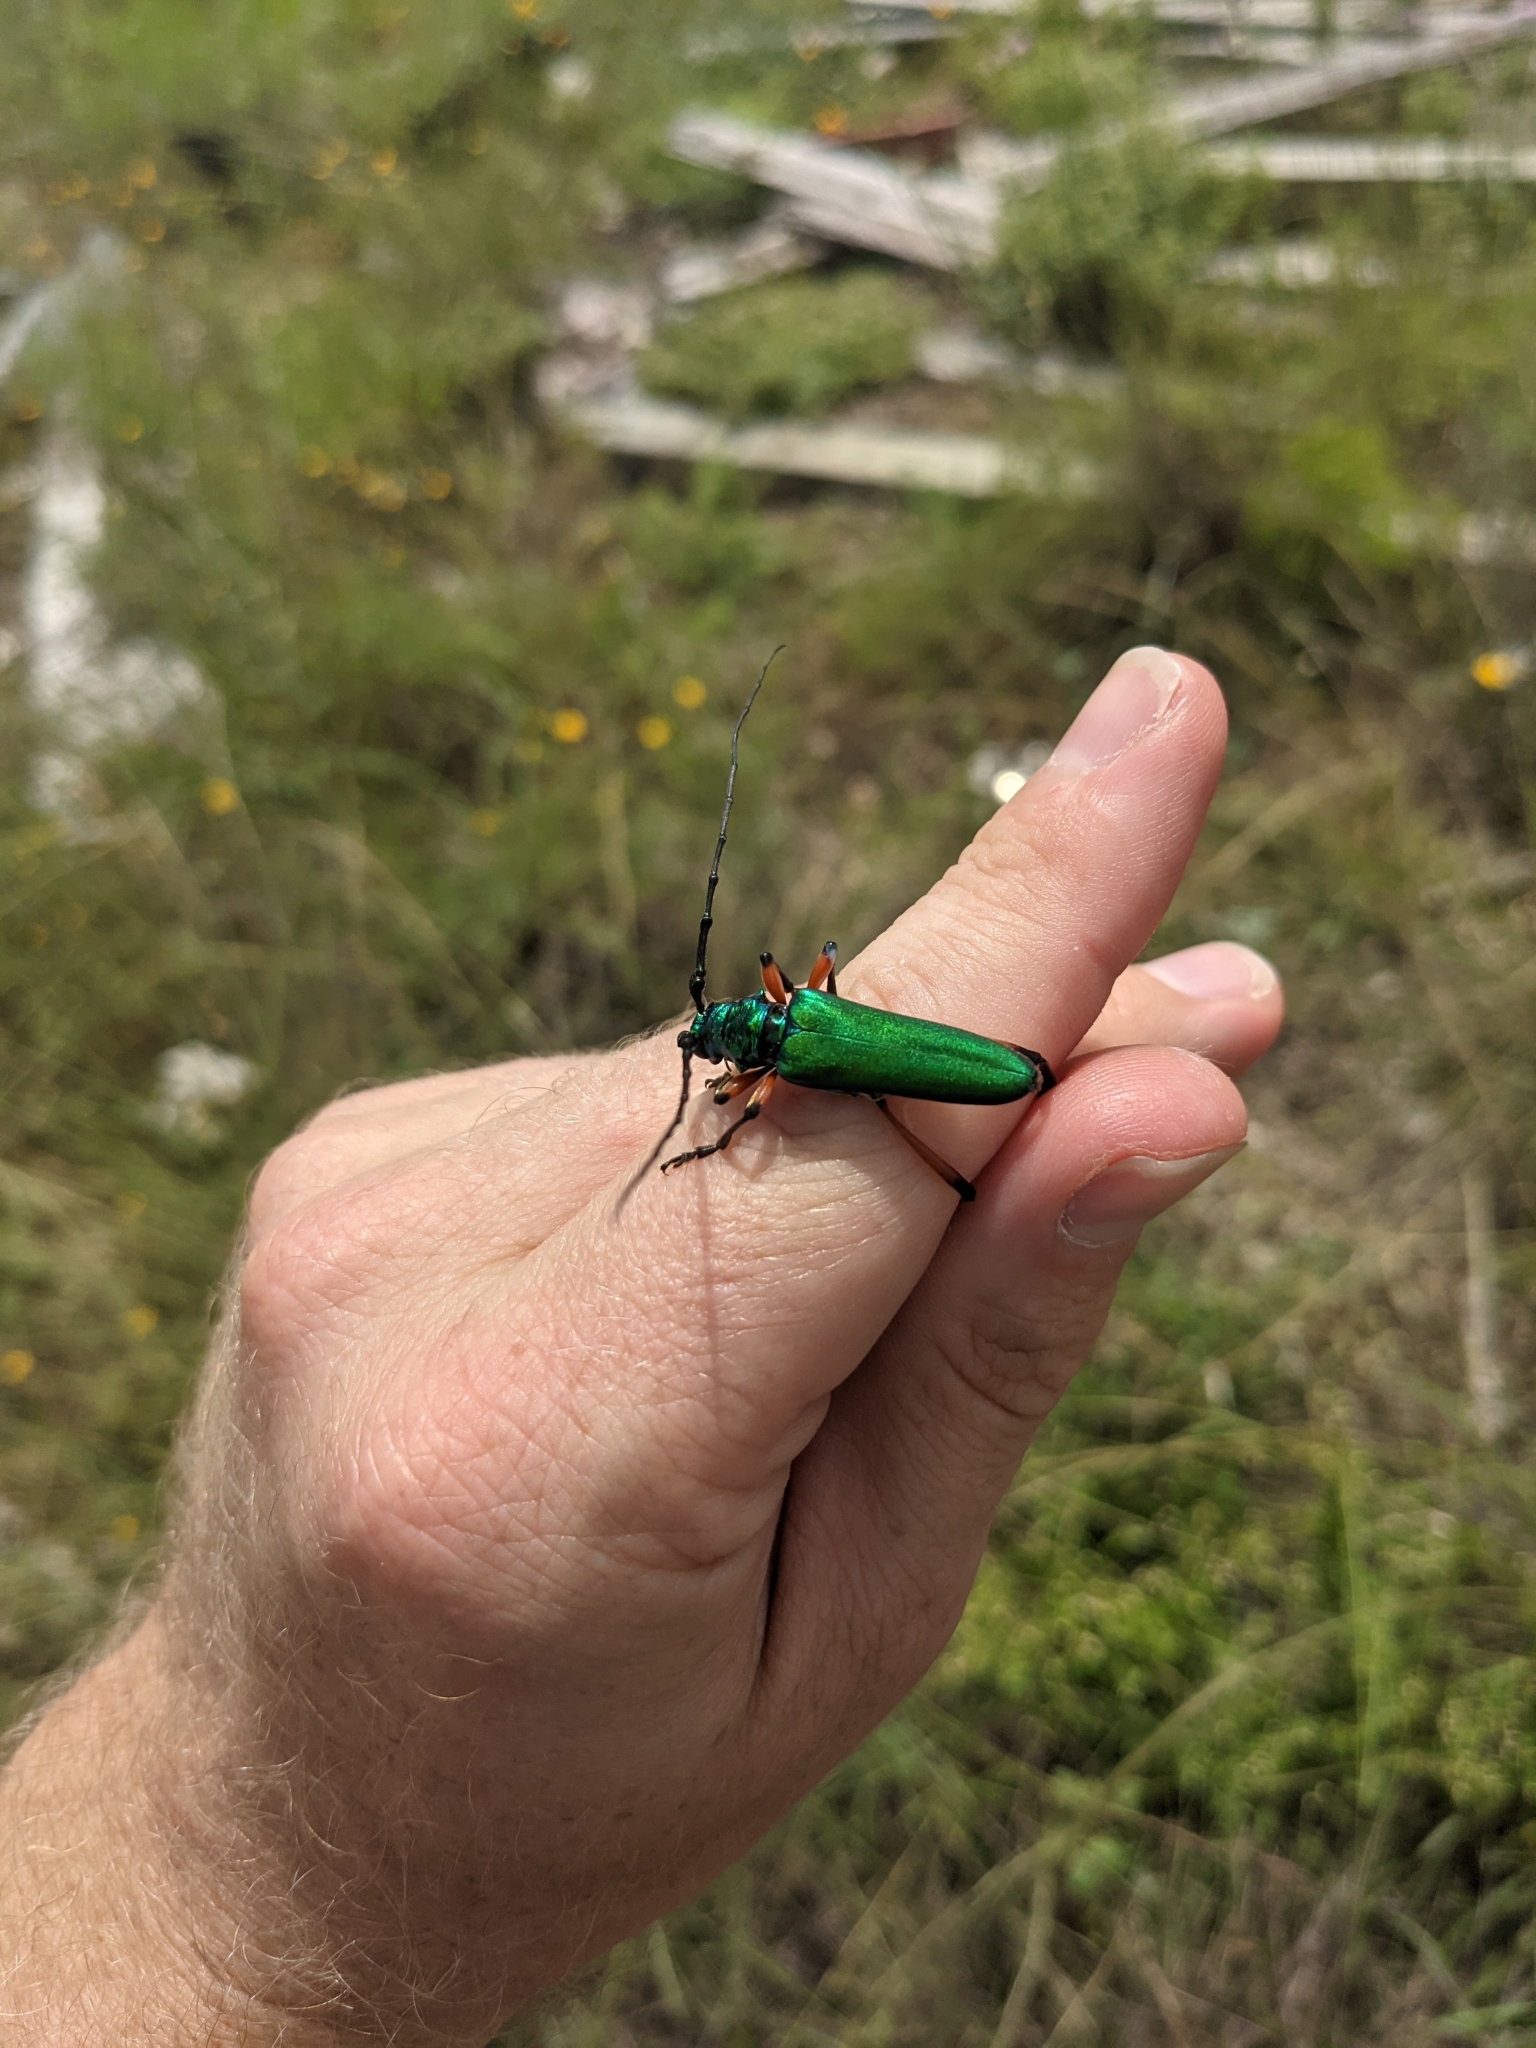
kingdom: Animalia
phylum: Arthropoda
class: Insecta
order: Coleoptera
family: Cerambycidae
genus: Plinthocoelium
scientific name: Plinthocoelium suaveolens
